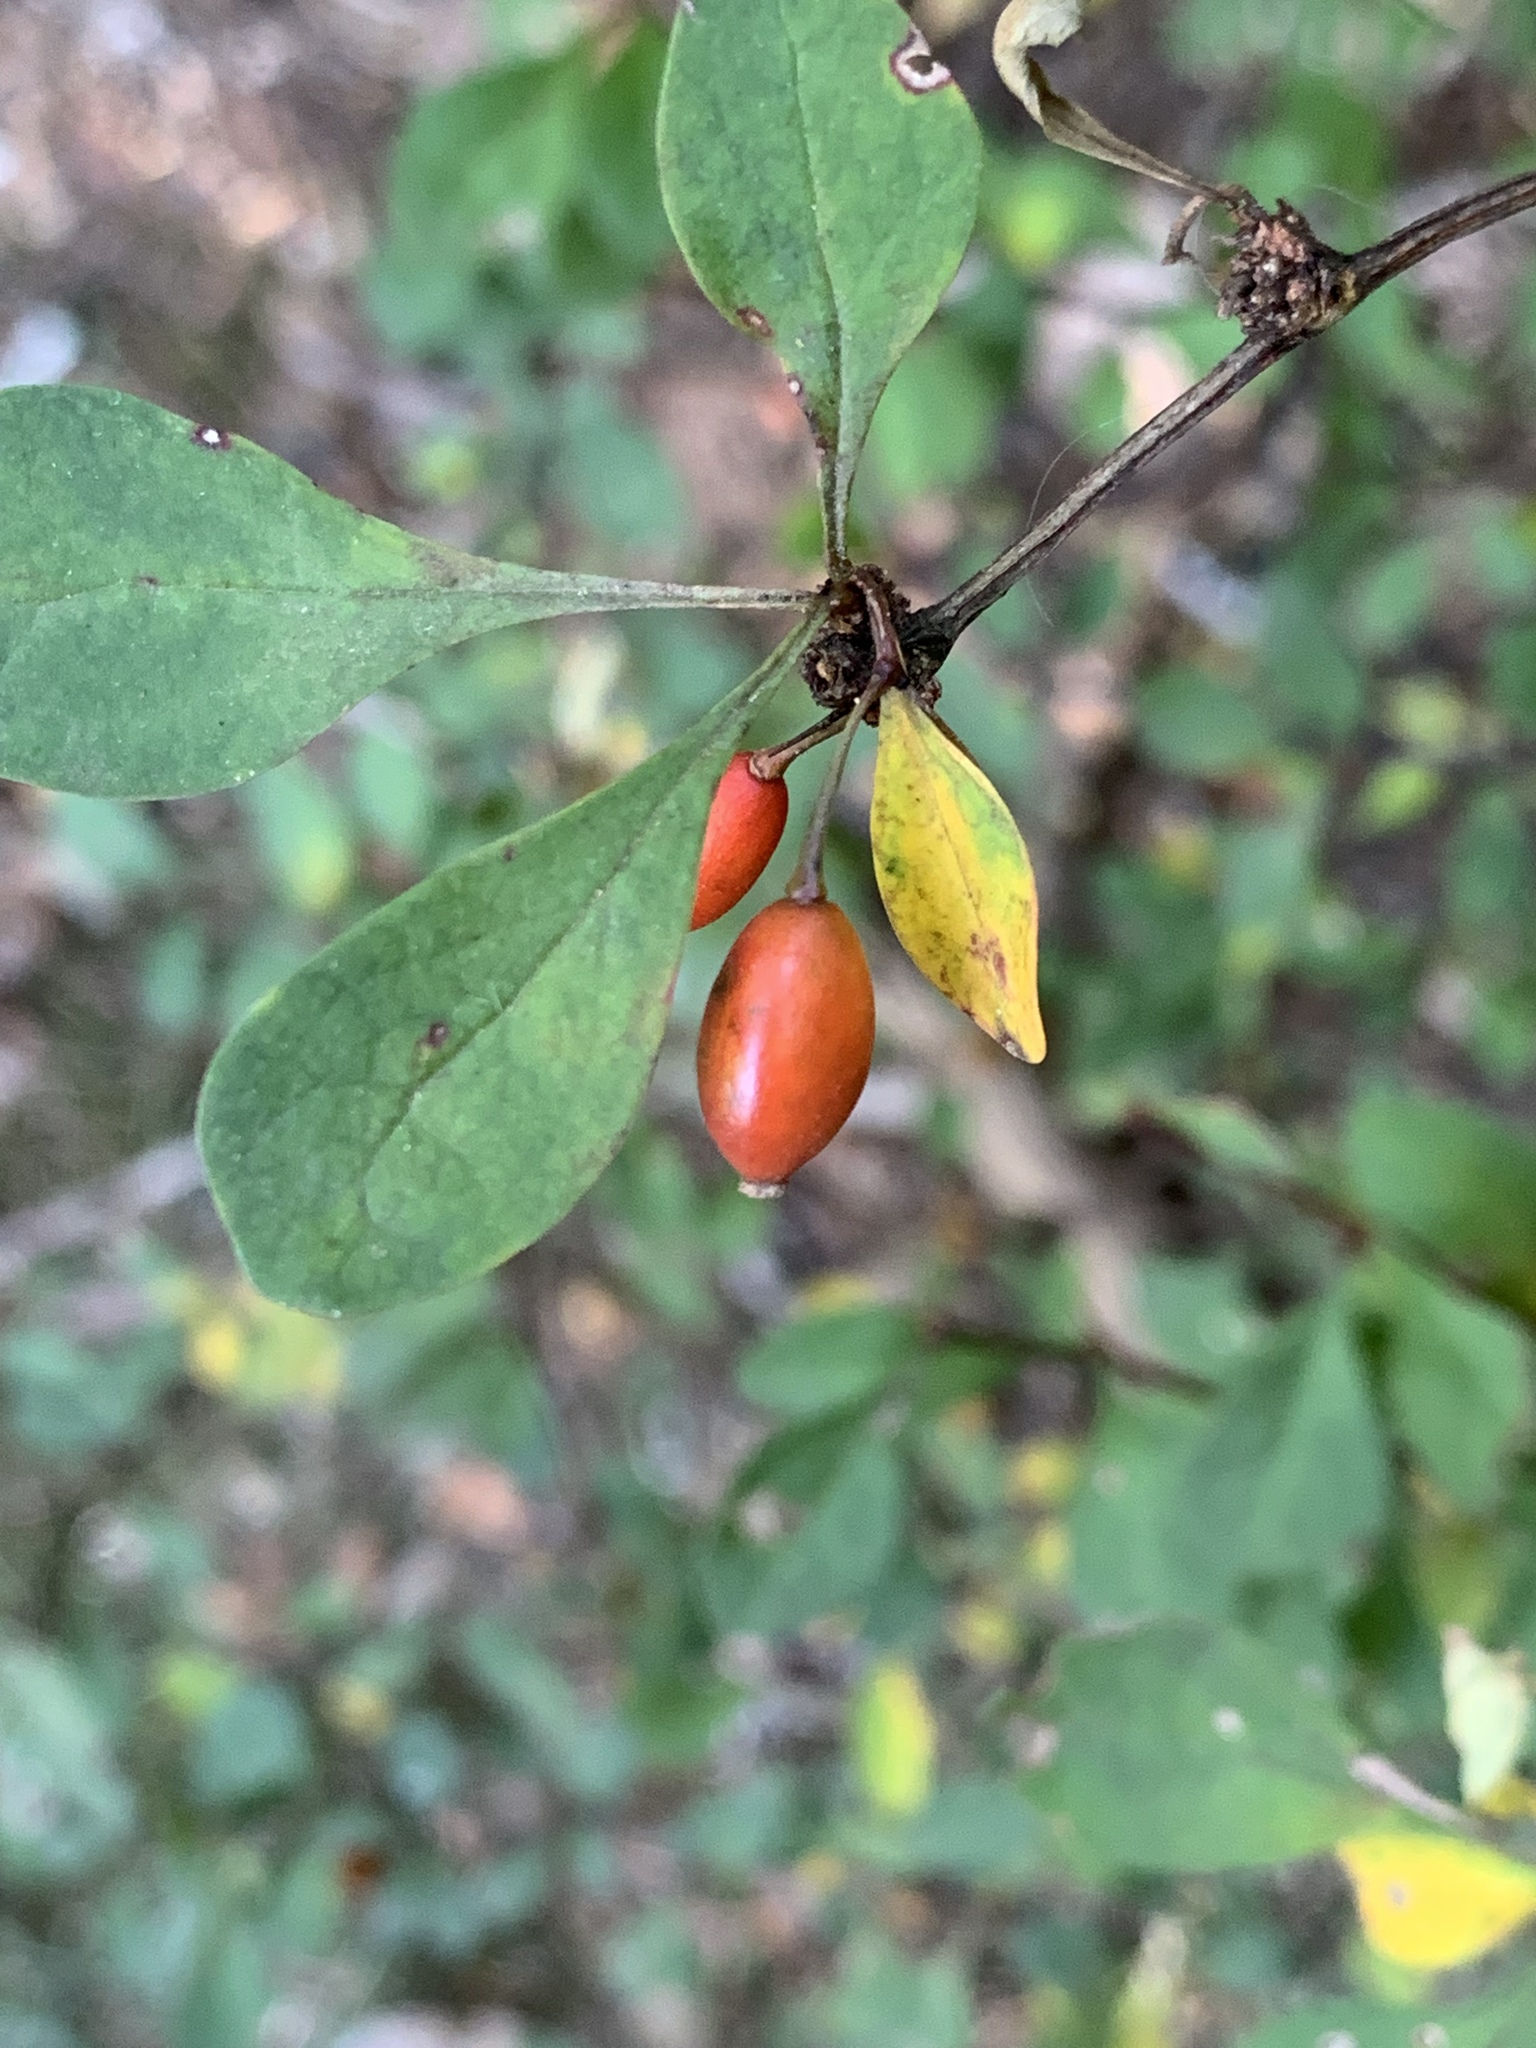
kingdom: Plantae
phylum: Tracheophyta
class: Magnoliopsida
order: Ranunculales
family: Berberidaceae
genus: Berberis
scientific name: Berberis thunbergii
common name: Japanese barberry
